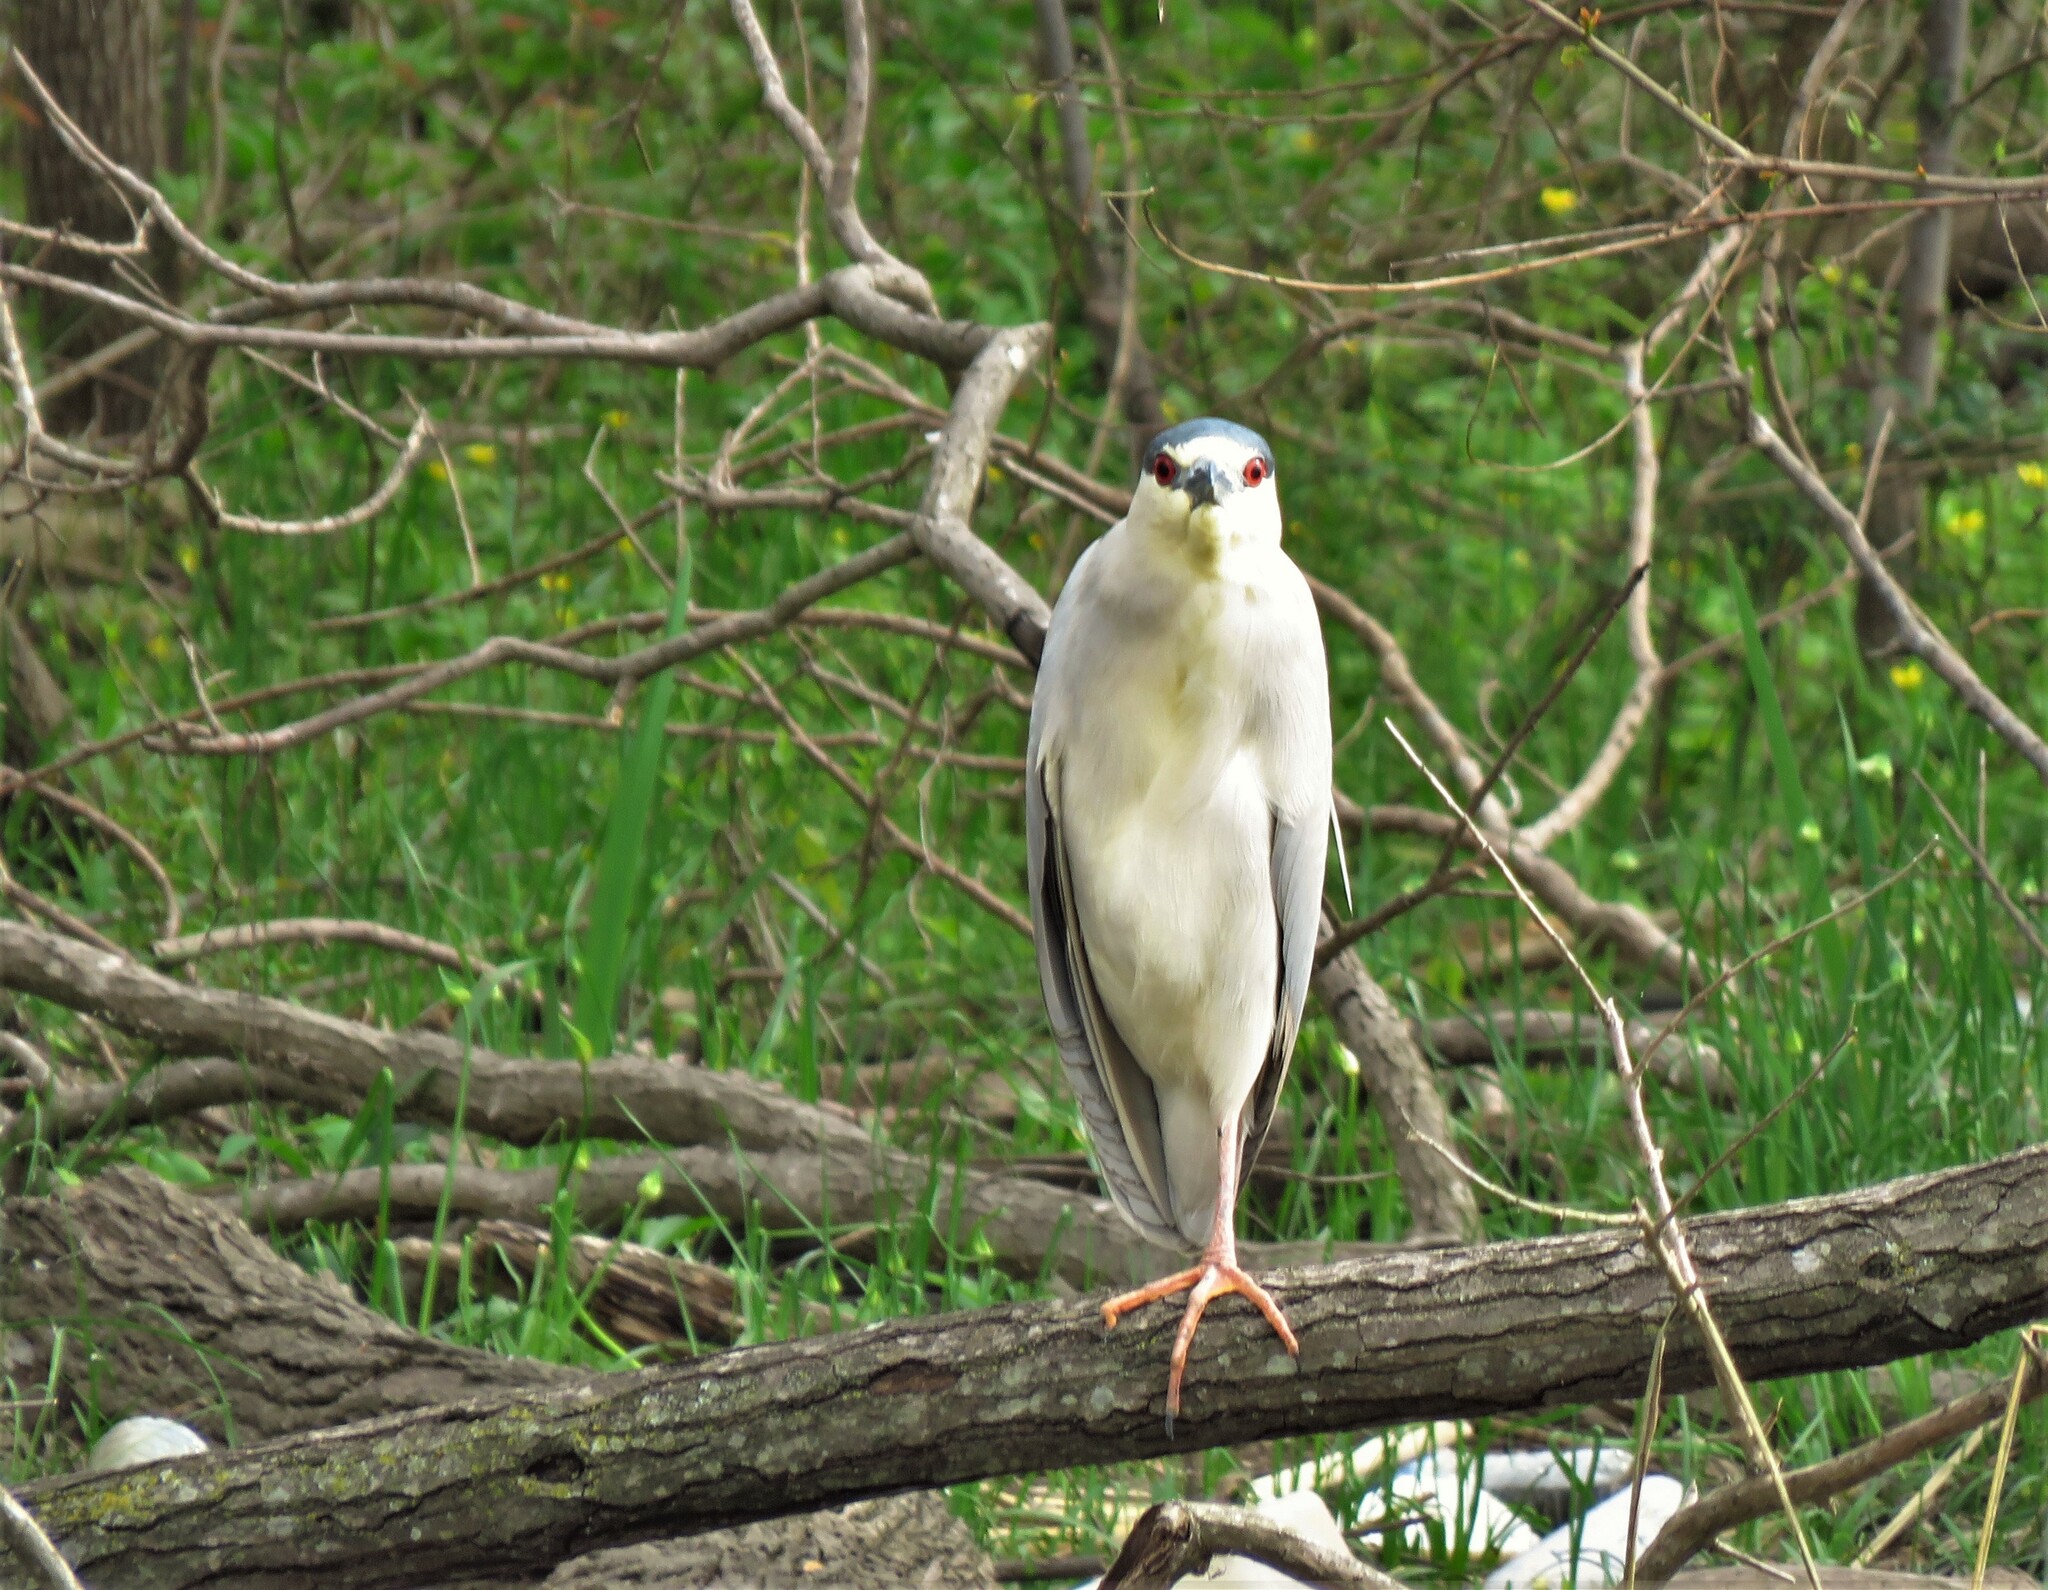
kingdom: Animalia
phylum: Chordata
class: Aves
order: Pelecaniformes
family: Ardeidae
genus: Nycticorax
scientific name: Nycticorax nycticorax
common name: Black-crowned night heron
